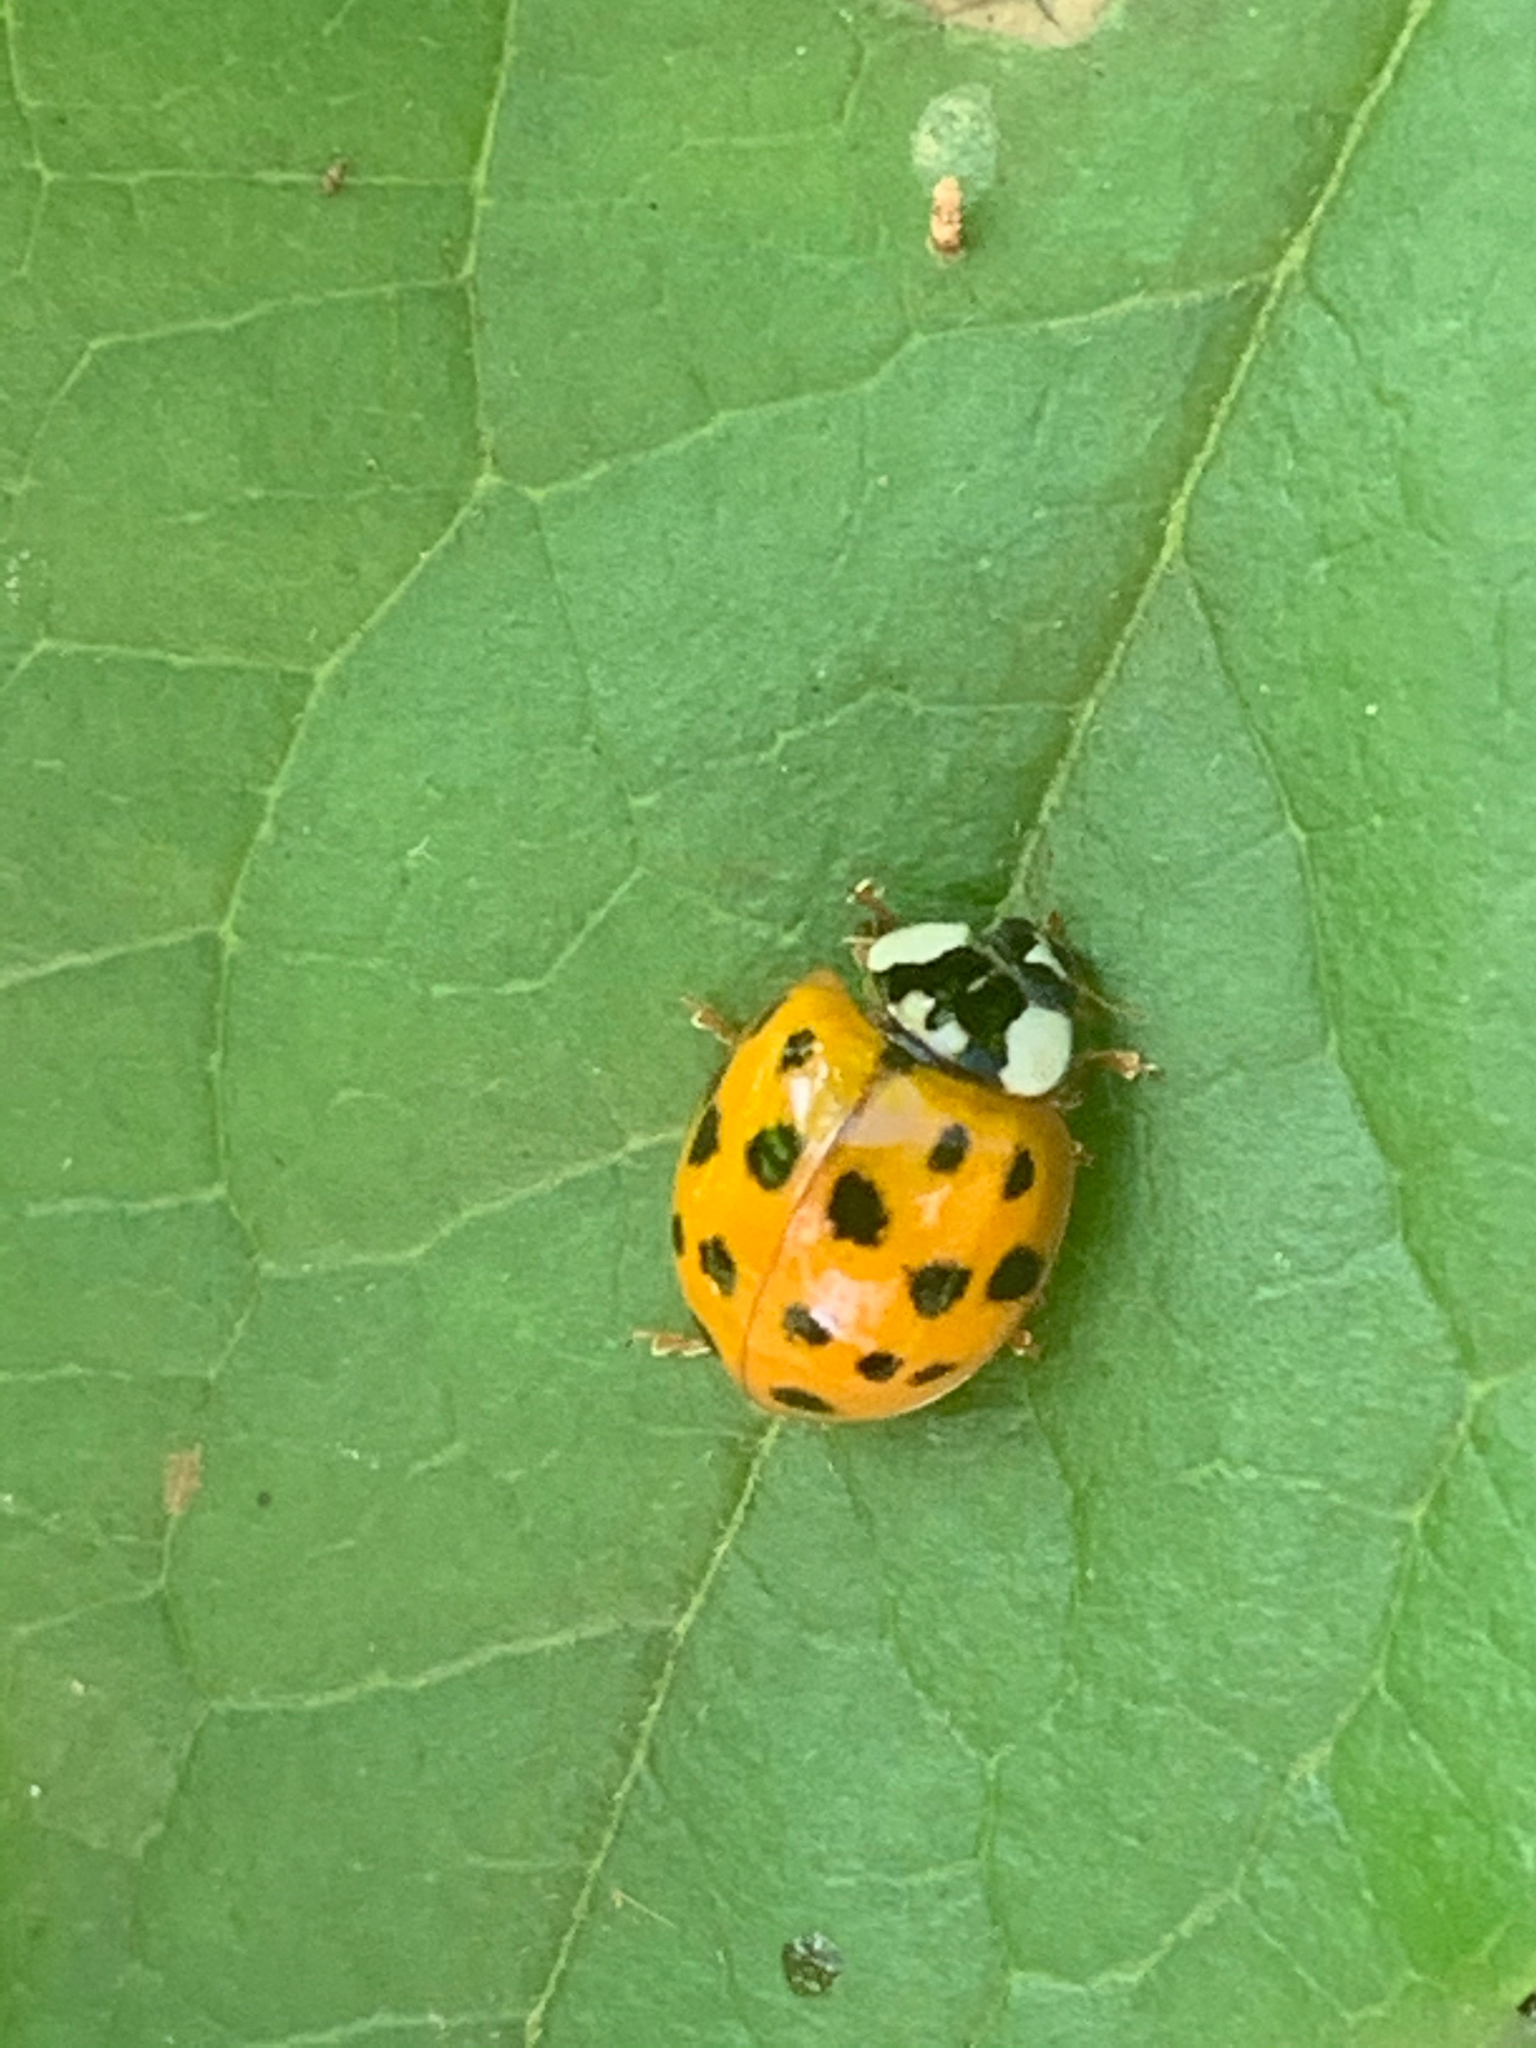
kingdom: Animalia
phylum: Arthropoda
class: Insecta
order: Coleoptera
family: Coccinellidae
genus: Harmonia
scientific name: Harmonia axyridis
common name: Harlequin ladybird
